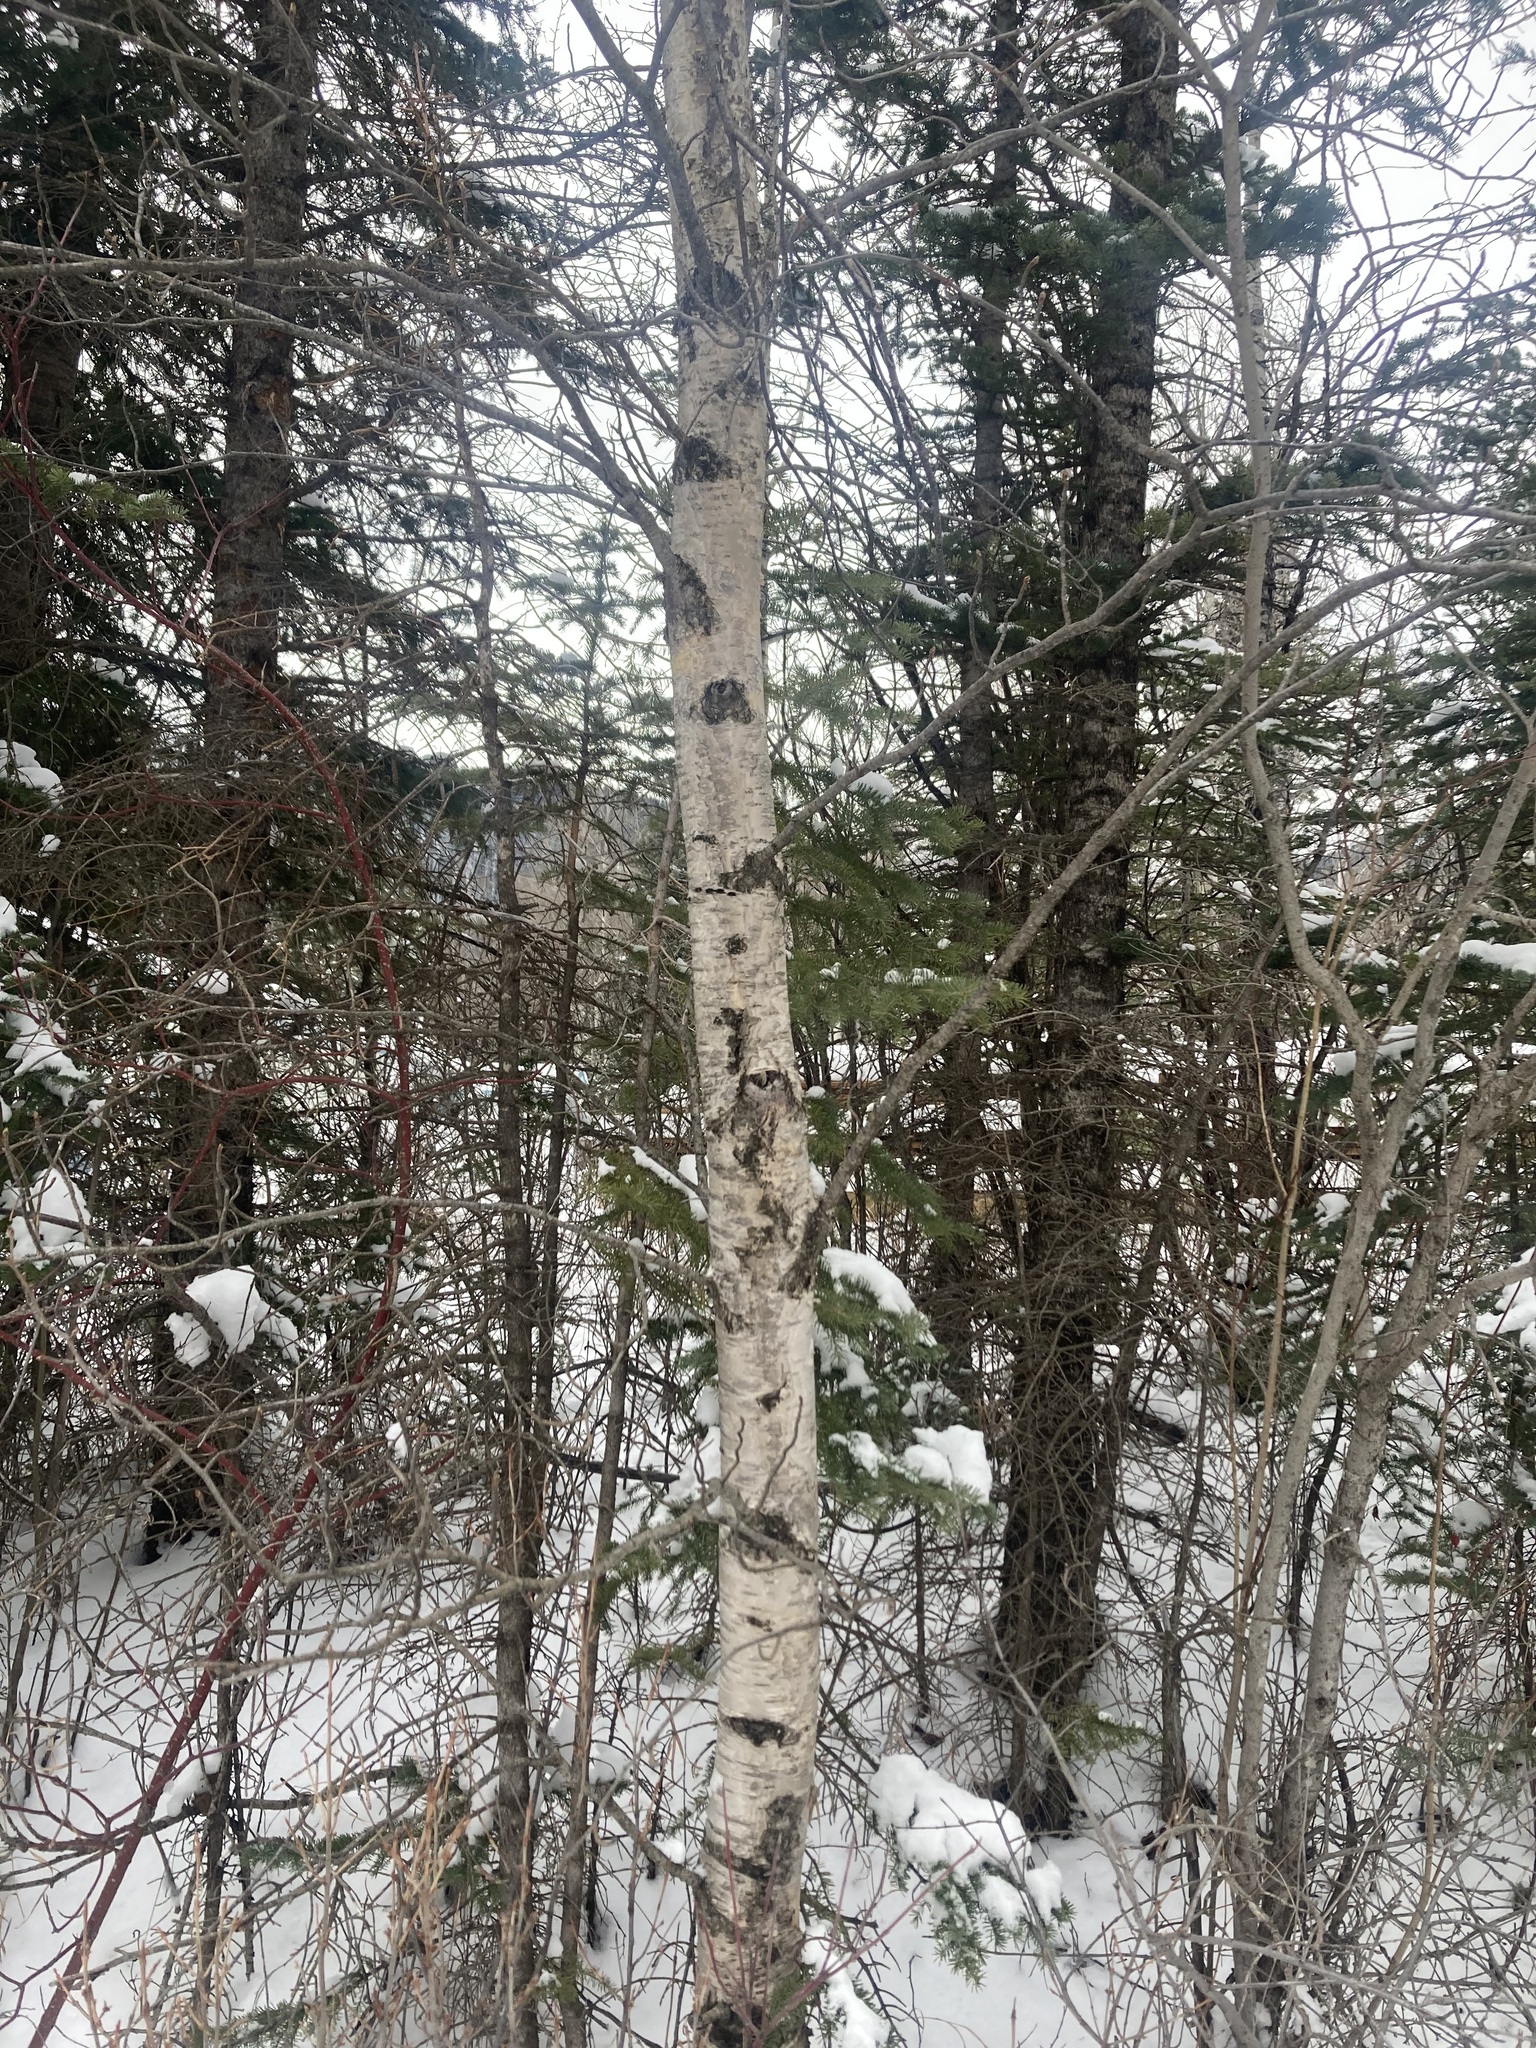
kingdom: Plantae
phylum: Tracheophyta
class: Magnoliopsida
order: Fagales
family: Betulaceae
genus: Betula
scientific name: Betula papyrifera
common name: Paper birch
